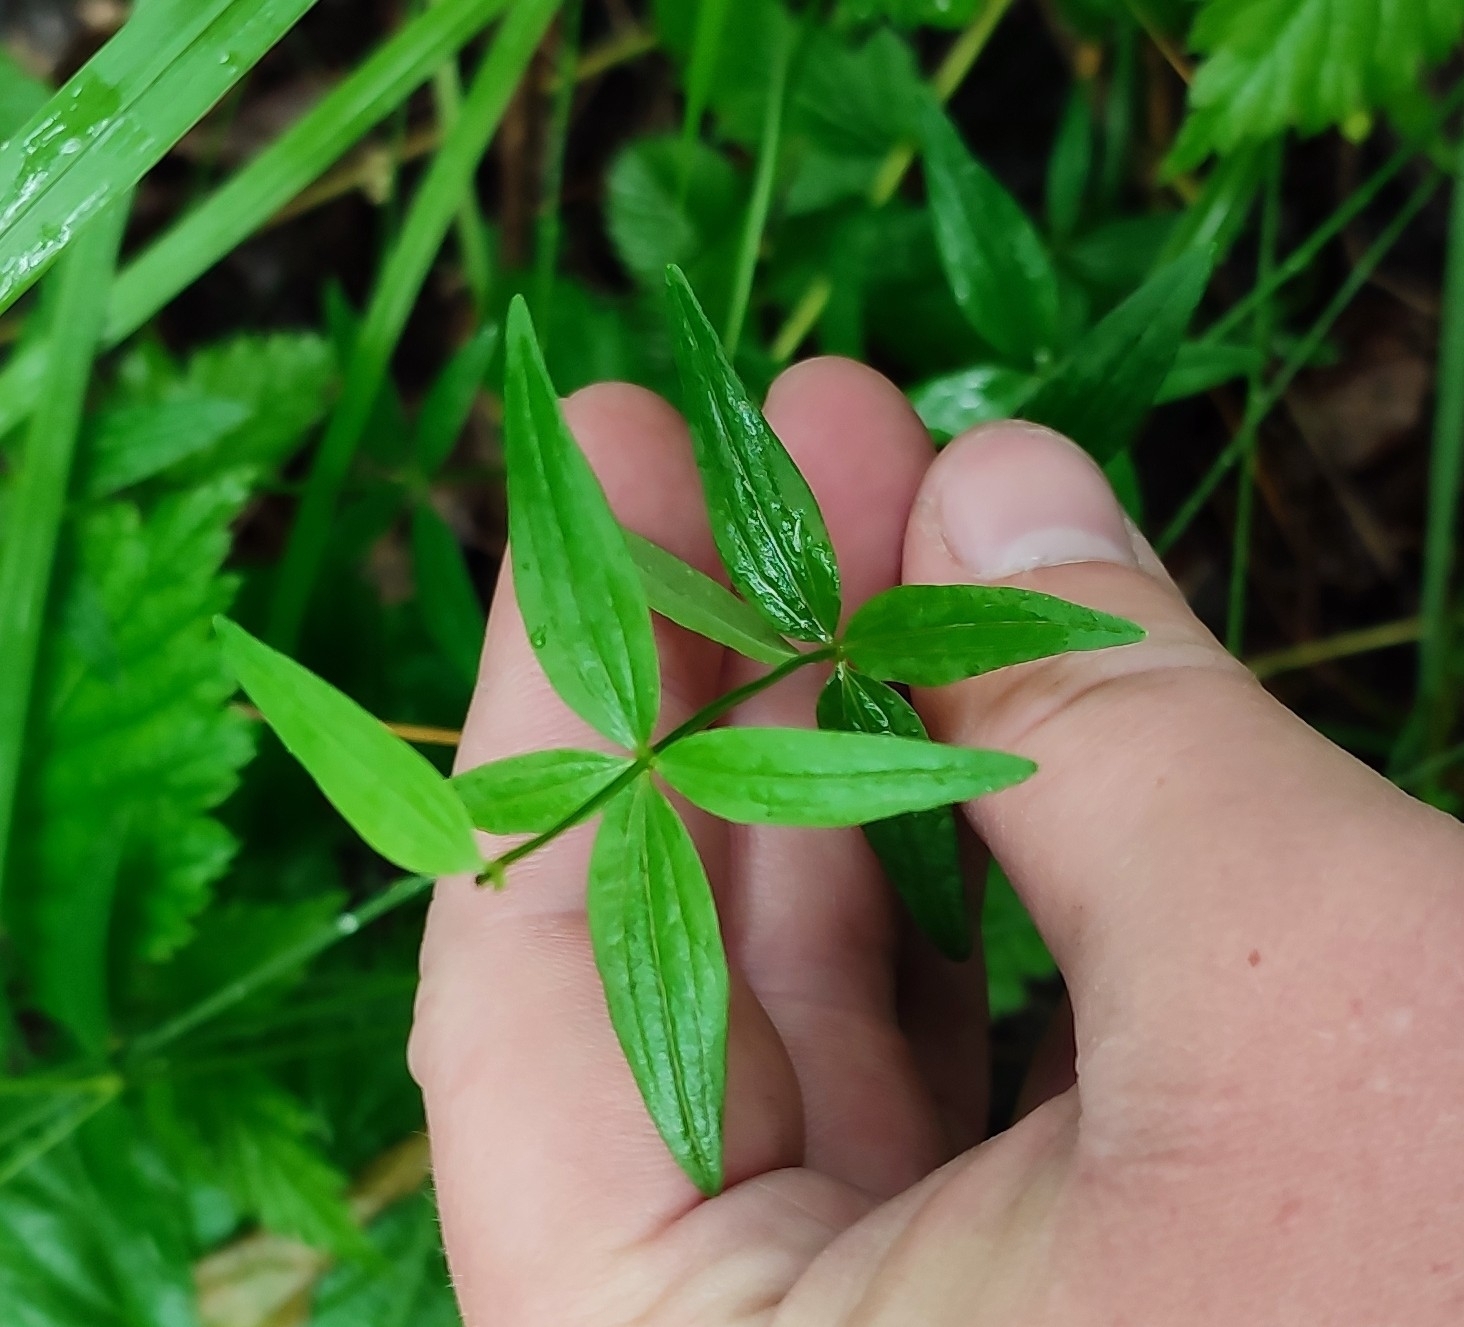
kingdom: Plantae
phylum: Tracheophyta
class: Magnoliopsida
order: Gentianales
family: Rubiaceae
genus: Galium
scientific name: Galium boreale
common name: Northern bedstraw
